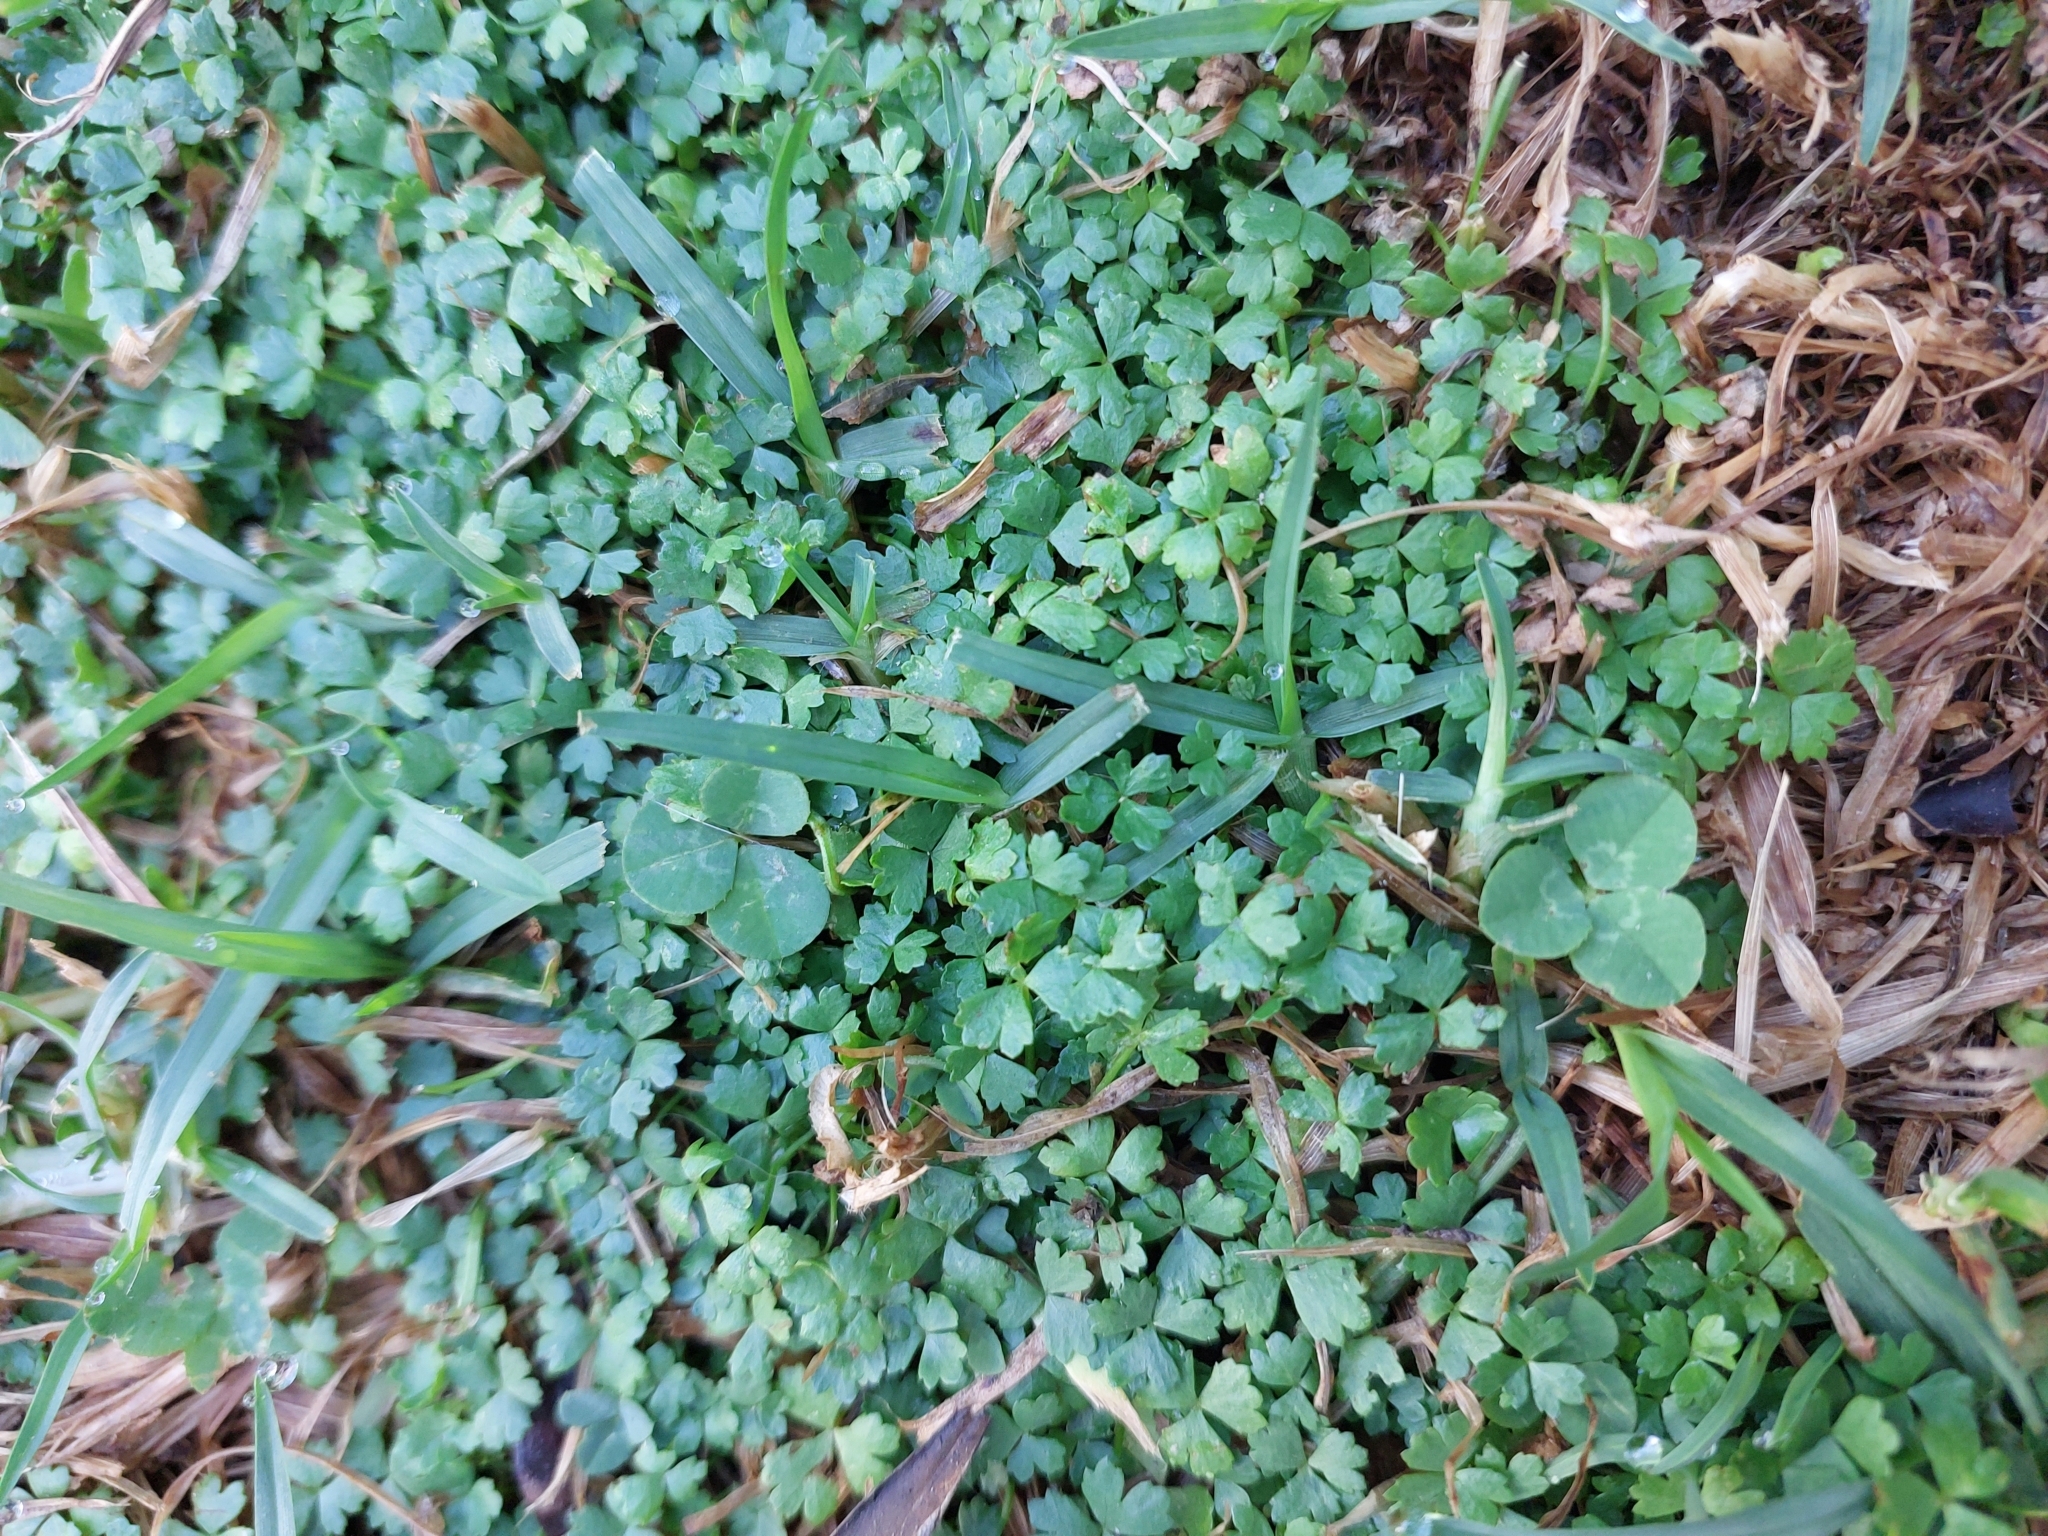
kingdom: Plantae
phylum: Tracheophyta
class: Magnoliopsida
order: Apiales
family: Araliaceae
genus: Hydrocotyle
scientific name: Hydrocotyle tripartita
